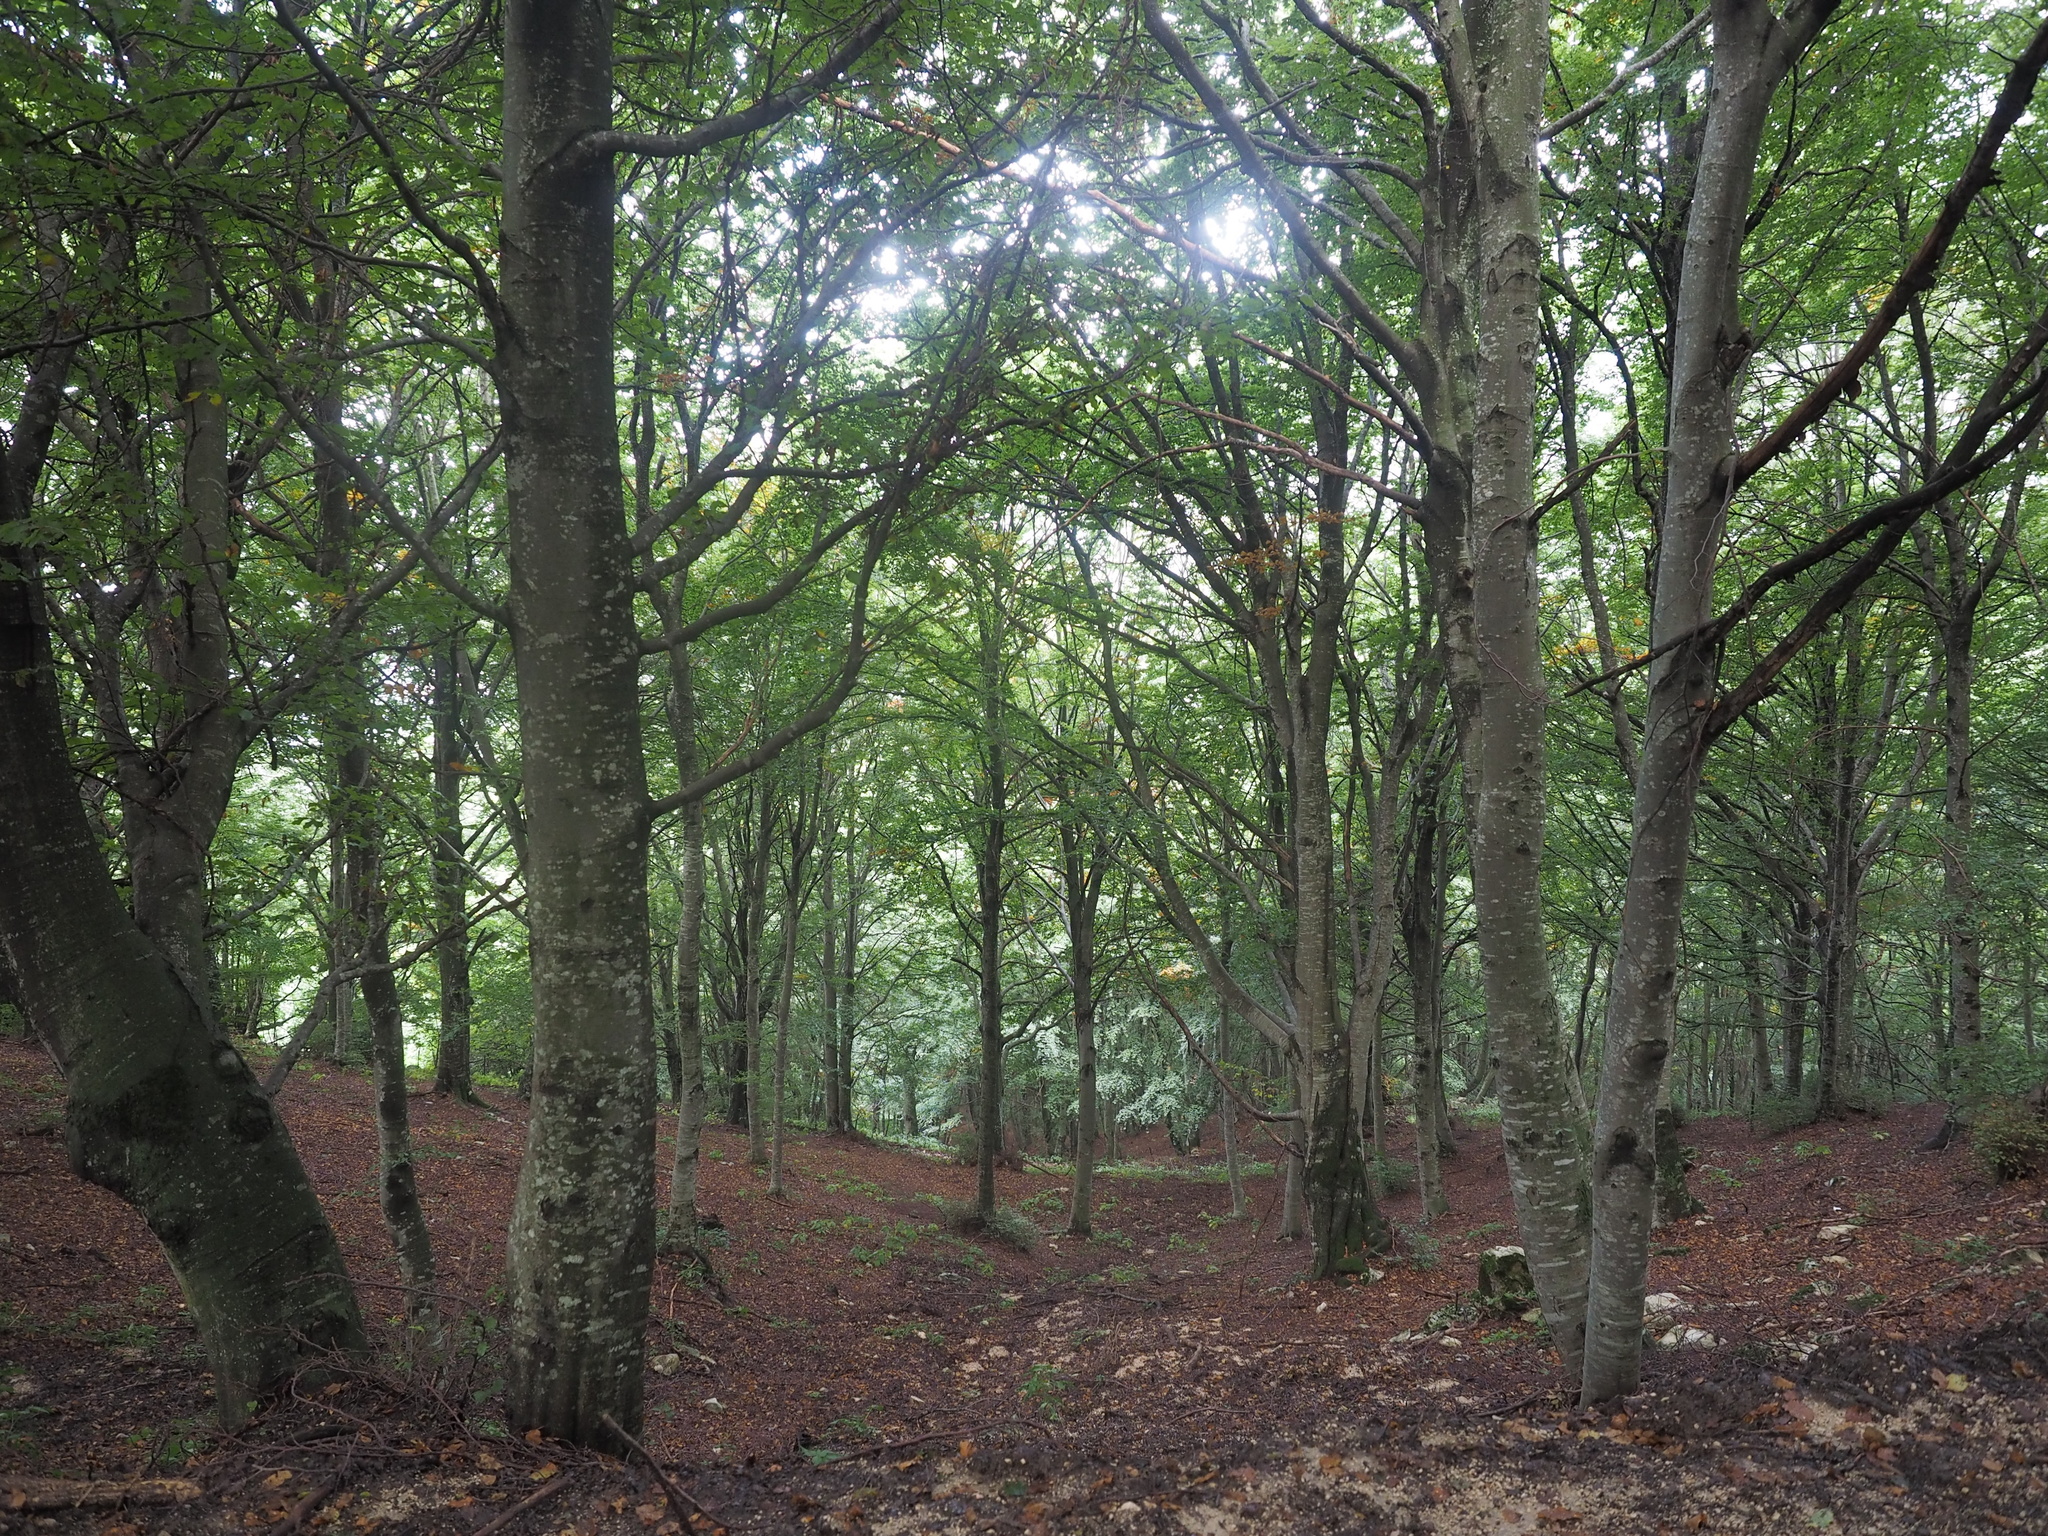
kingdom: Plantae
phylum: Tracheophyta
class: Magnoliopsida
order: Fagales
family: Fagaceae
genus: Fagus
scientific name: Fagus sylvatica
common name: Beech
